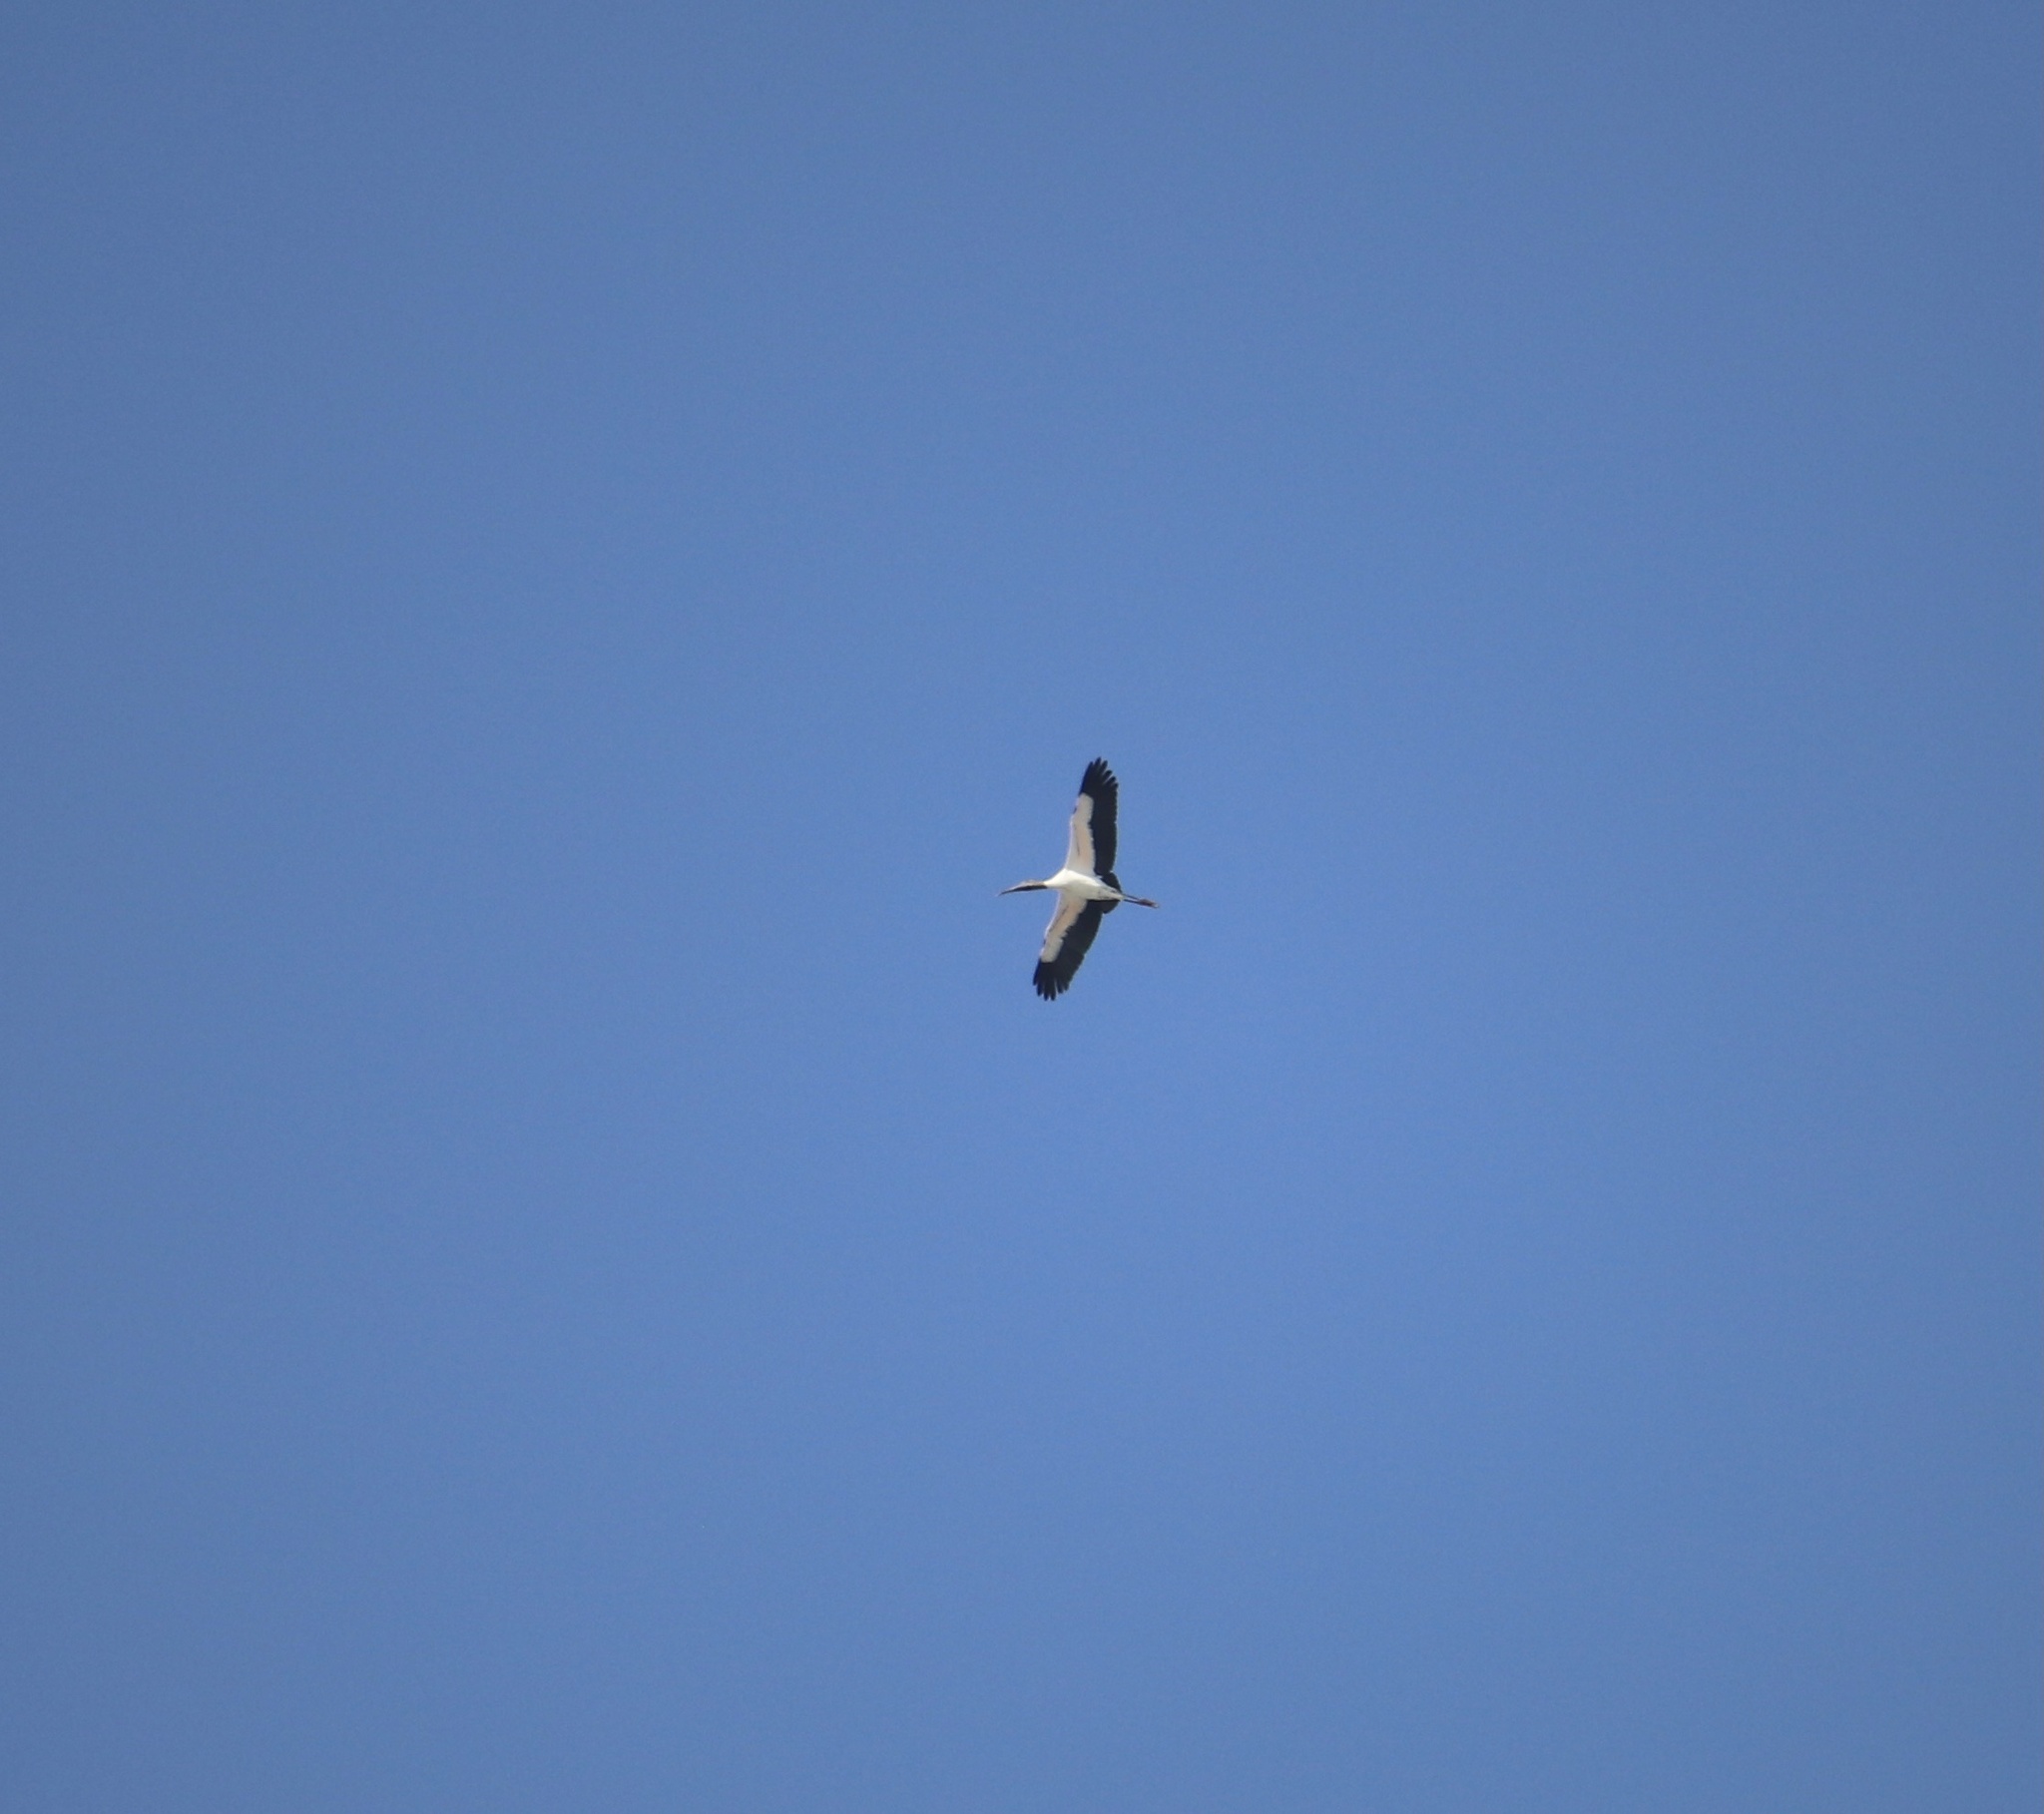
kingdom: Animalia
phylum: Chordata
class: Aves
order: Ciconiiformes
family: Ciconiidae
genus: Mycteria
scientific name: Mycteria americana
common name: Wood stork
